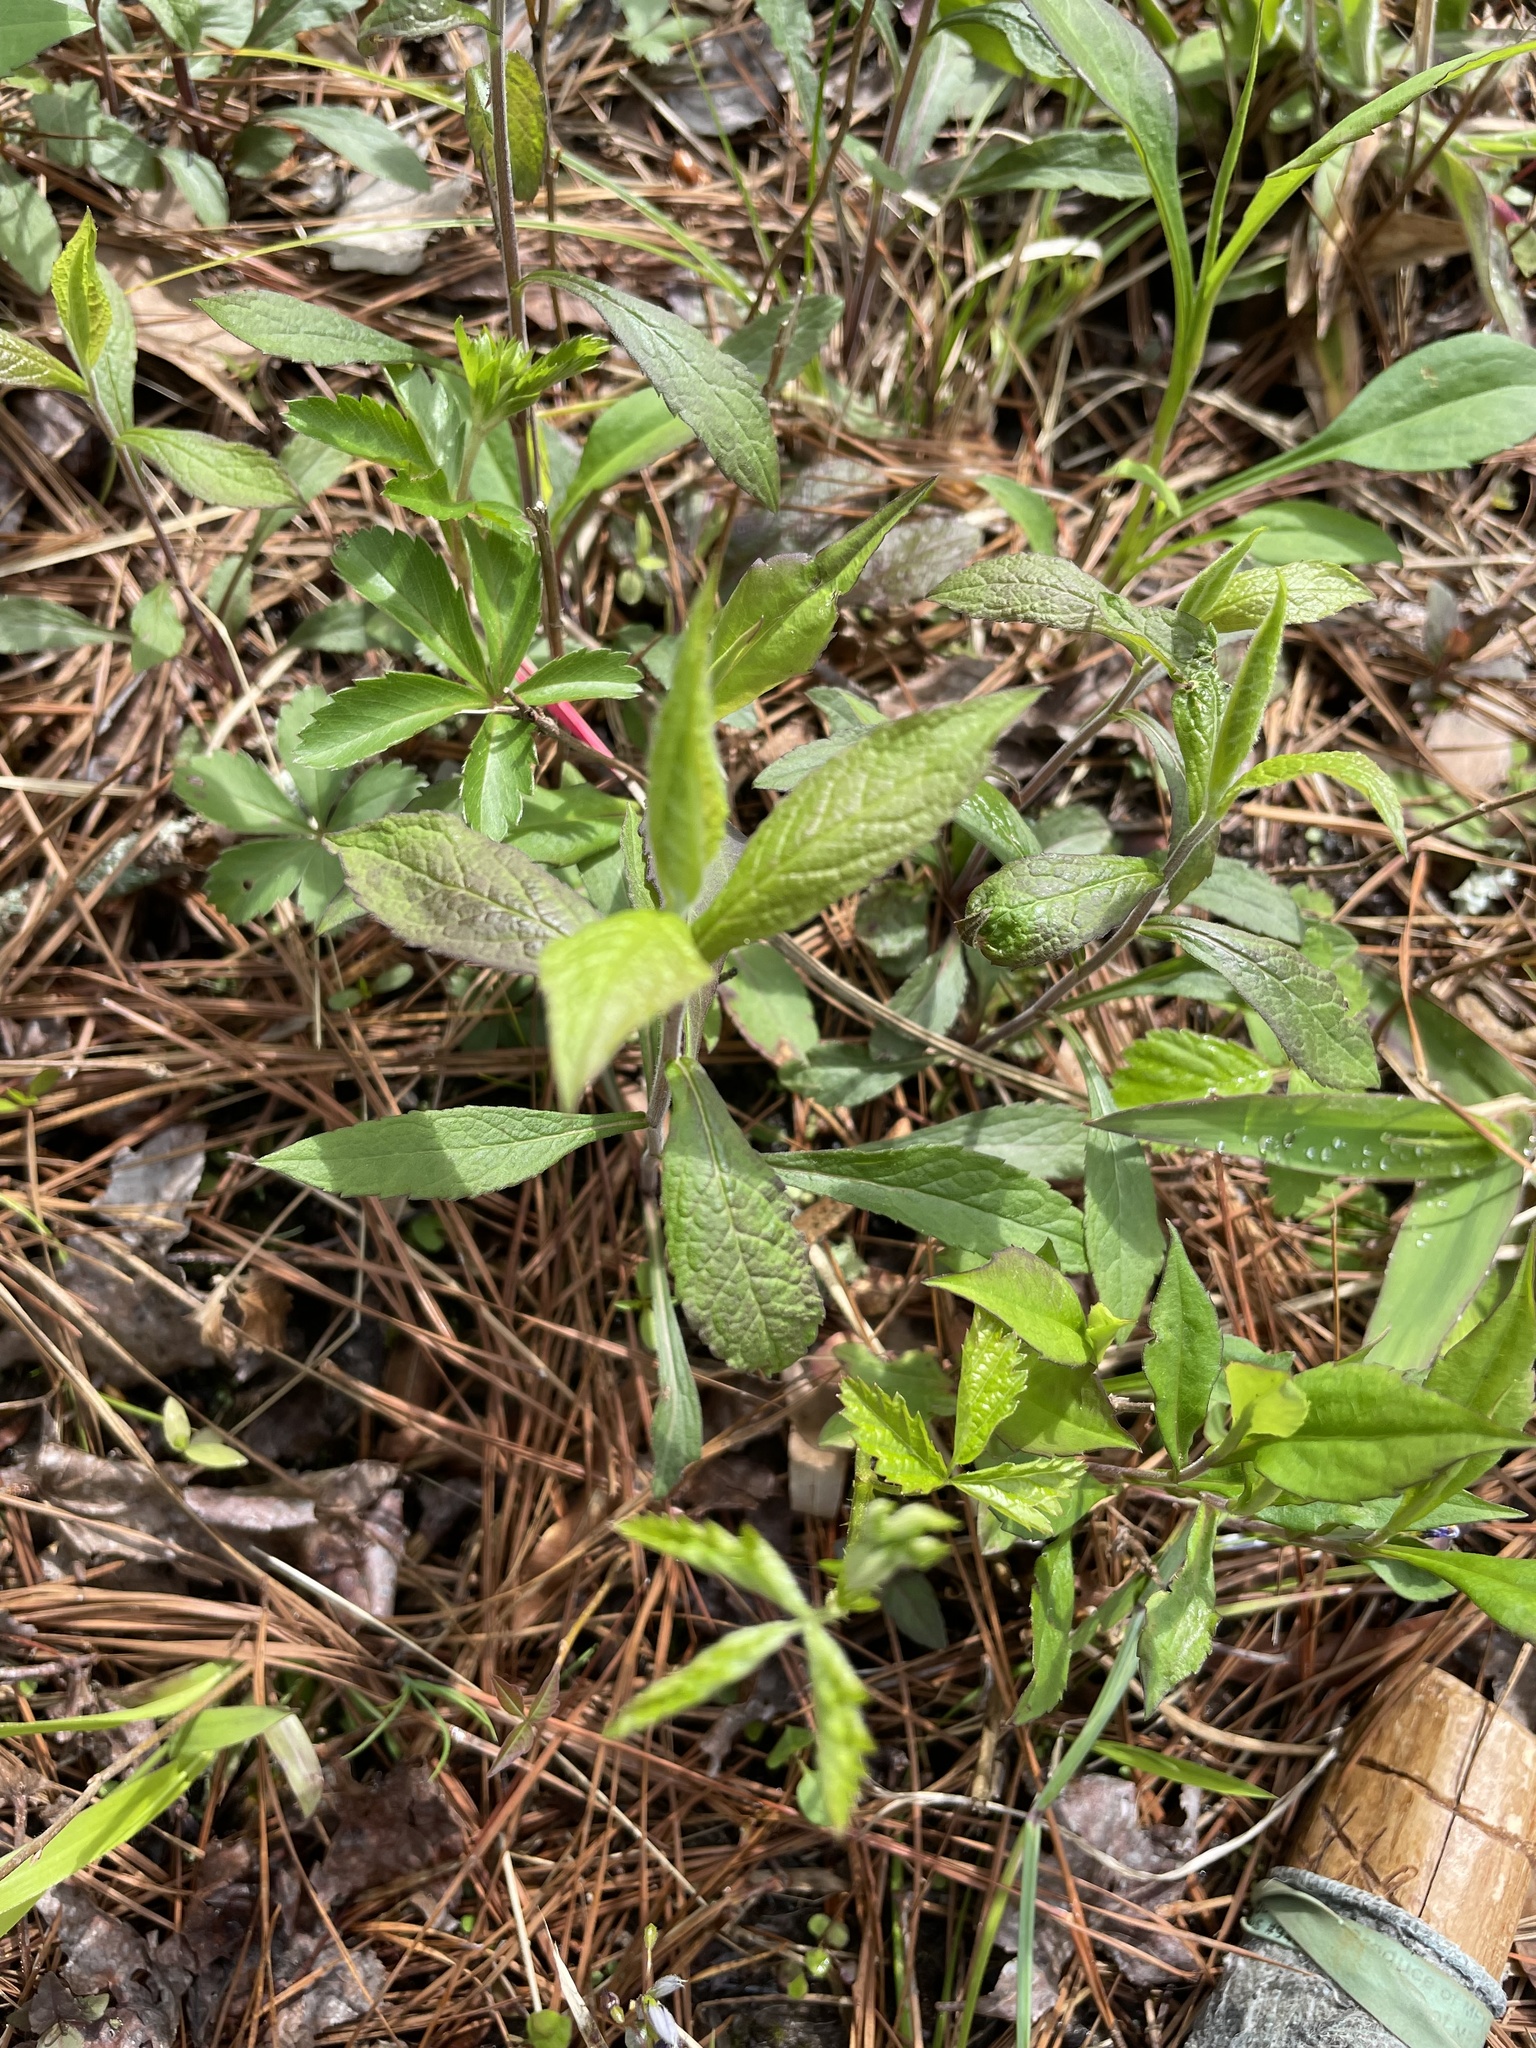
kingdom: Plantae
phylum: Tracheophyta
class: Magnoliopsida
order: Asterales
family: Asteraceae
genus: Solidago
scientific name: Solidago rugosa
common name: Rough-stemmed goldenrod
